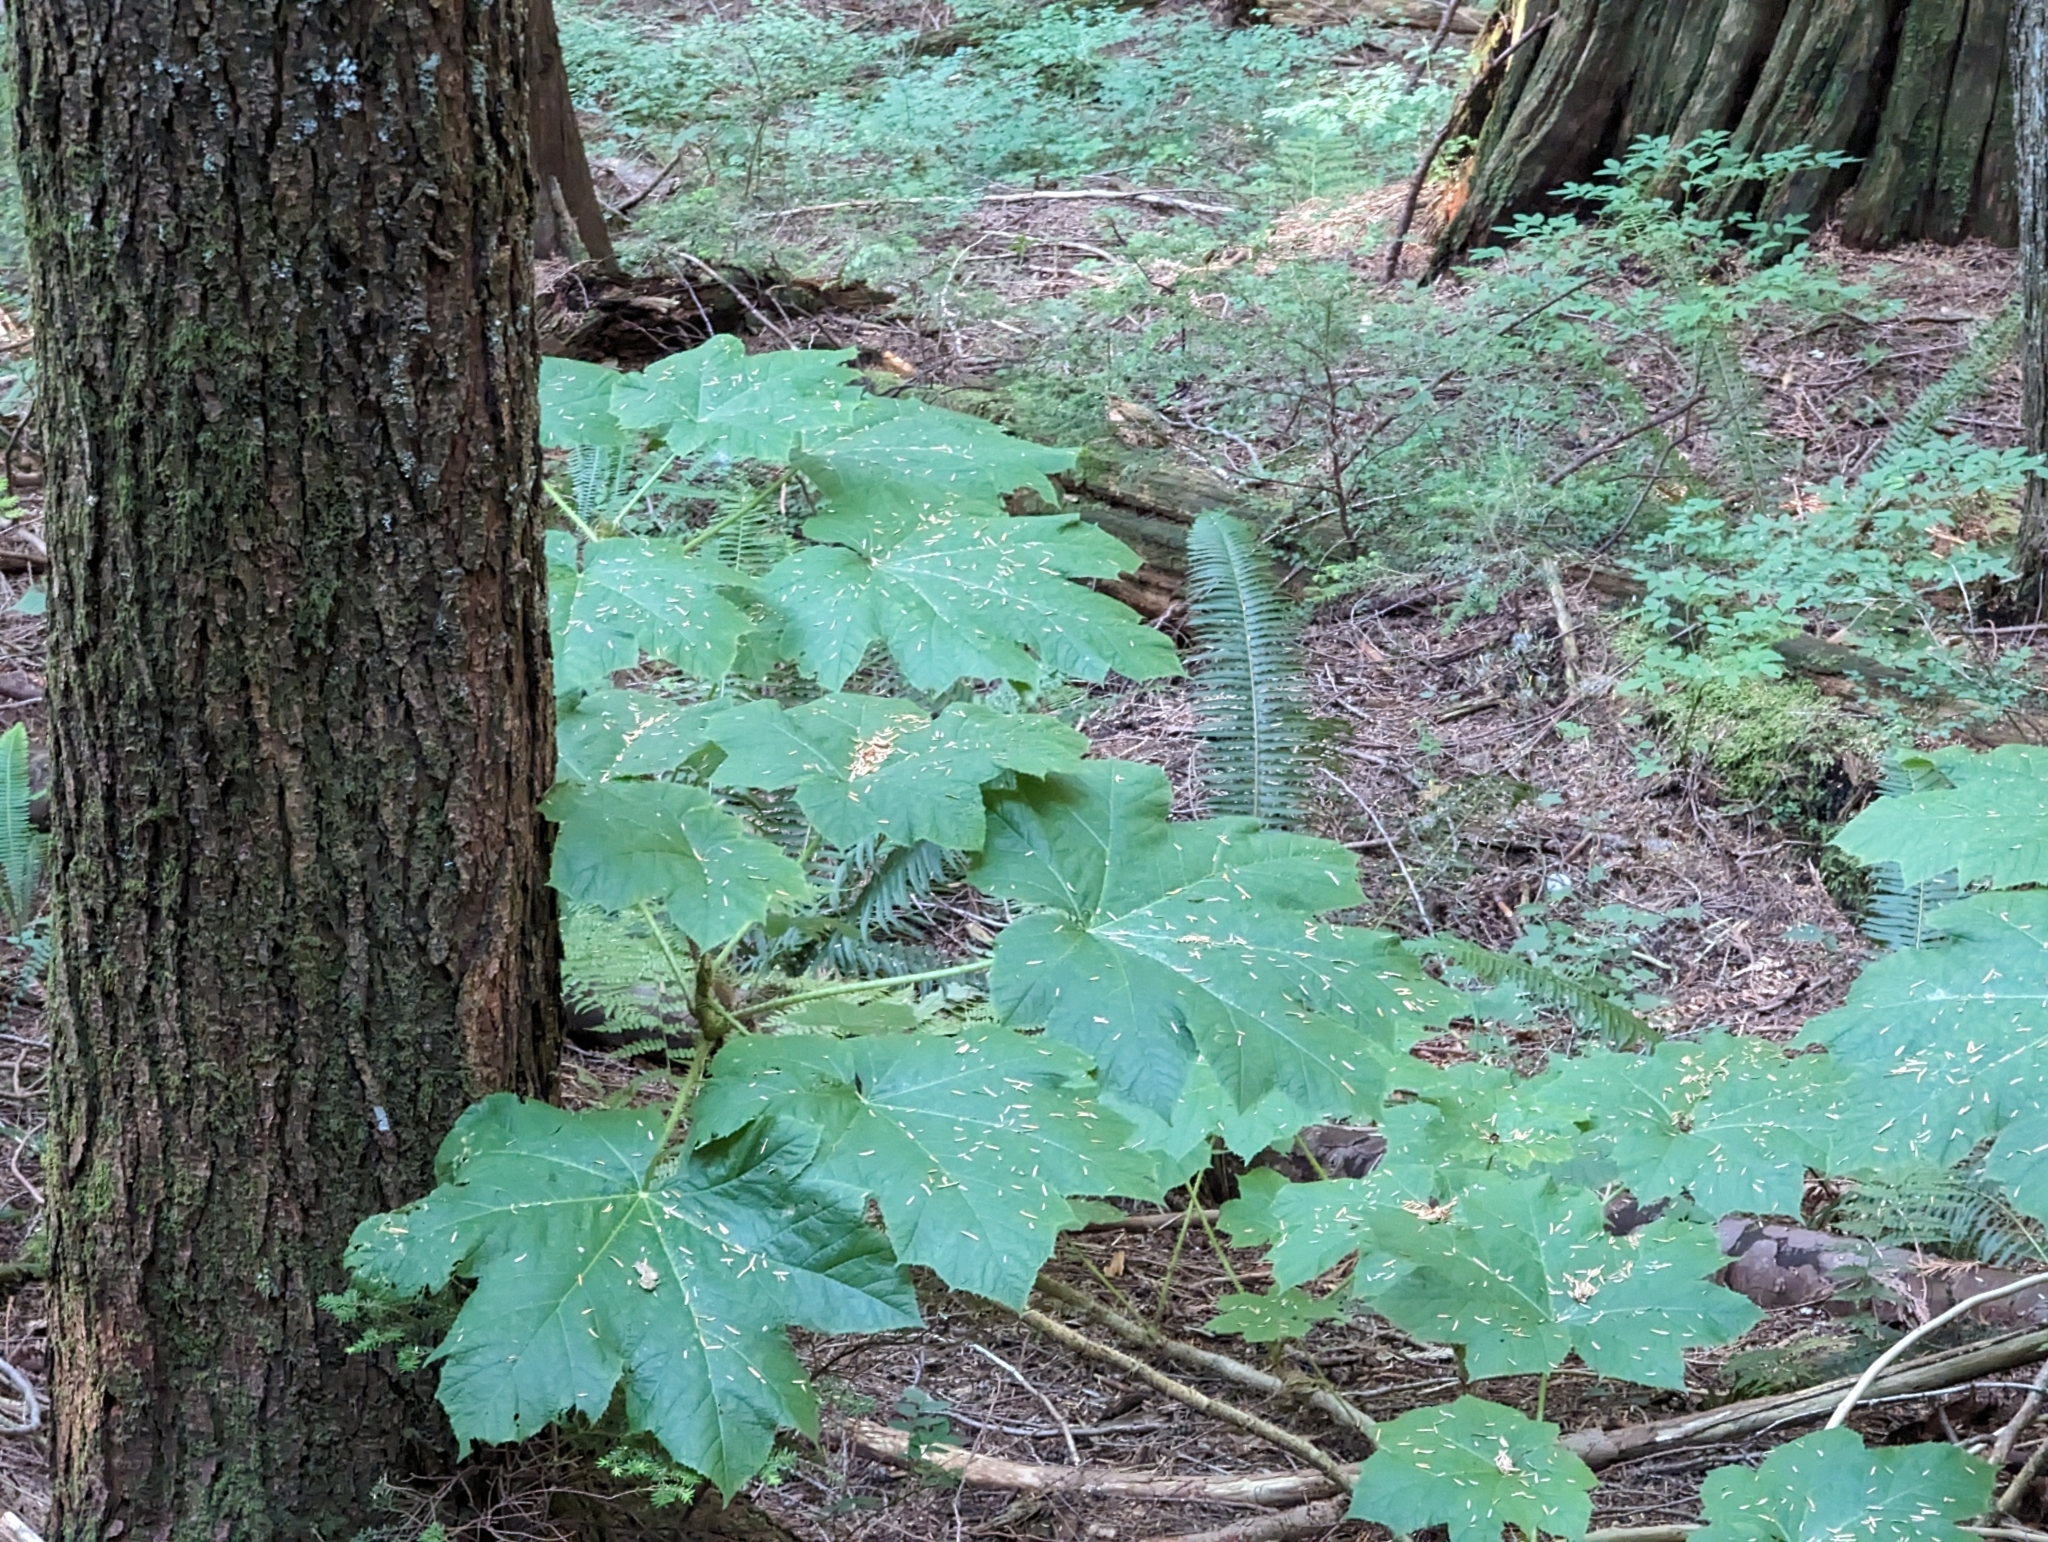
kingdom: Plantae
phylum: Tracheophyta
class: Magnoliopsida
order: Apiales
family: Araliaceae
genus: Oplopanax
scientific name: Oplopanax horridus
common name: Devil's walking-stick
